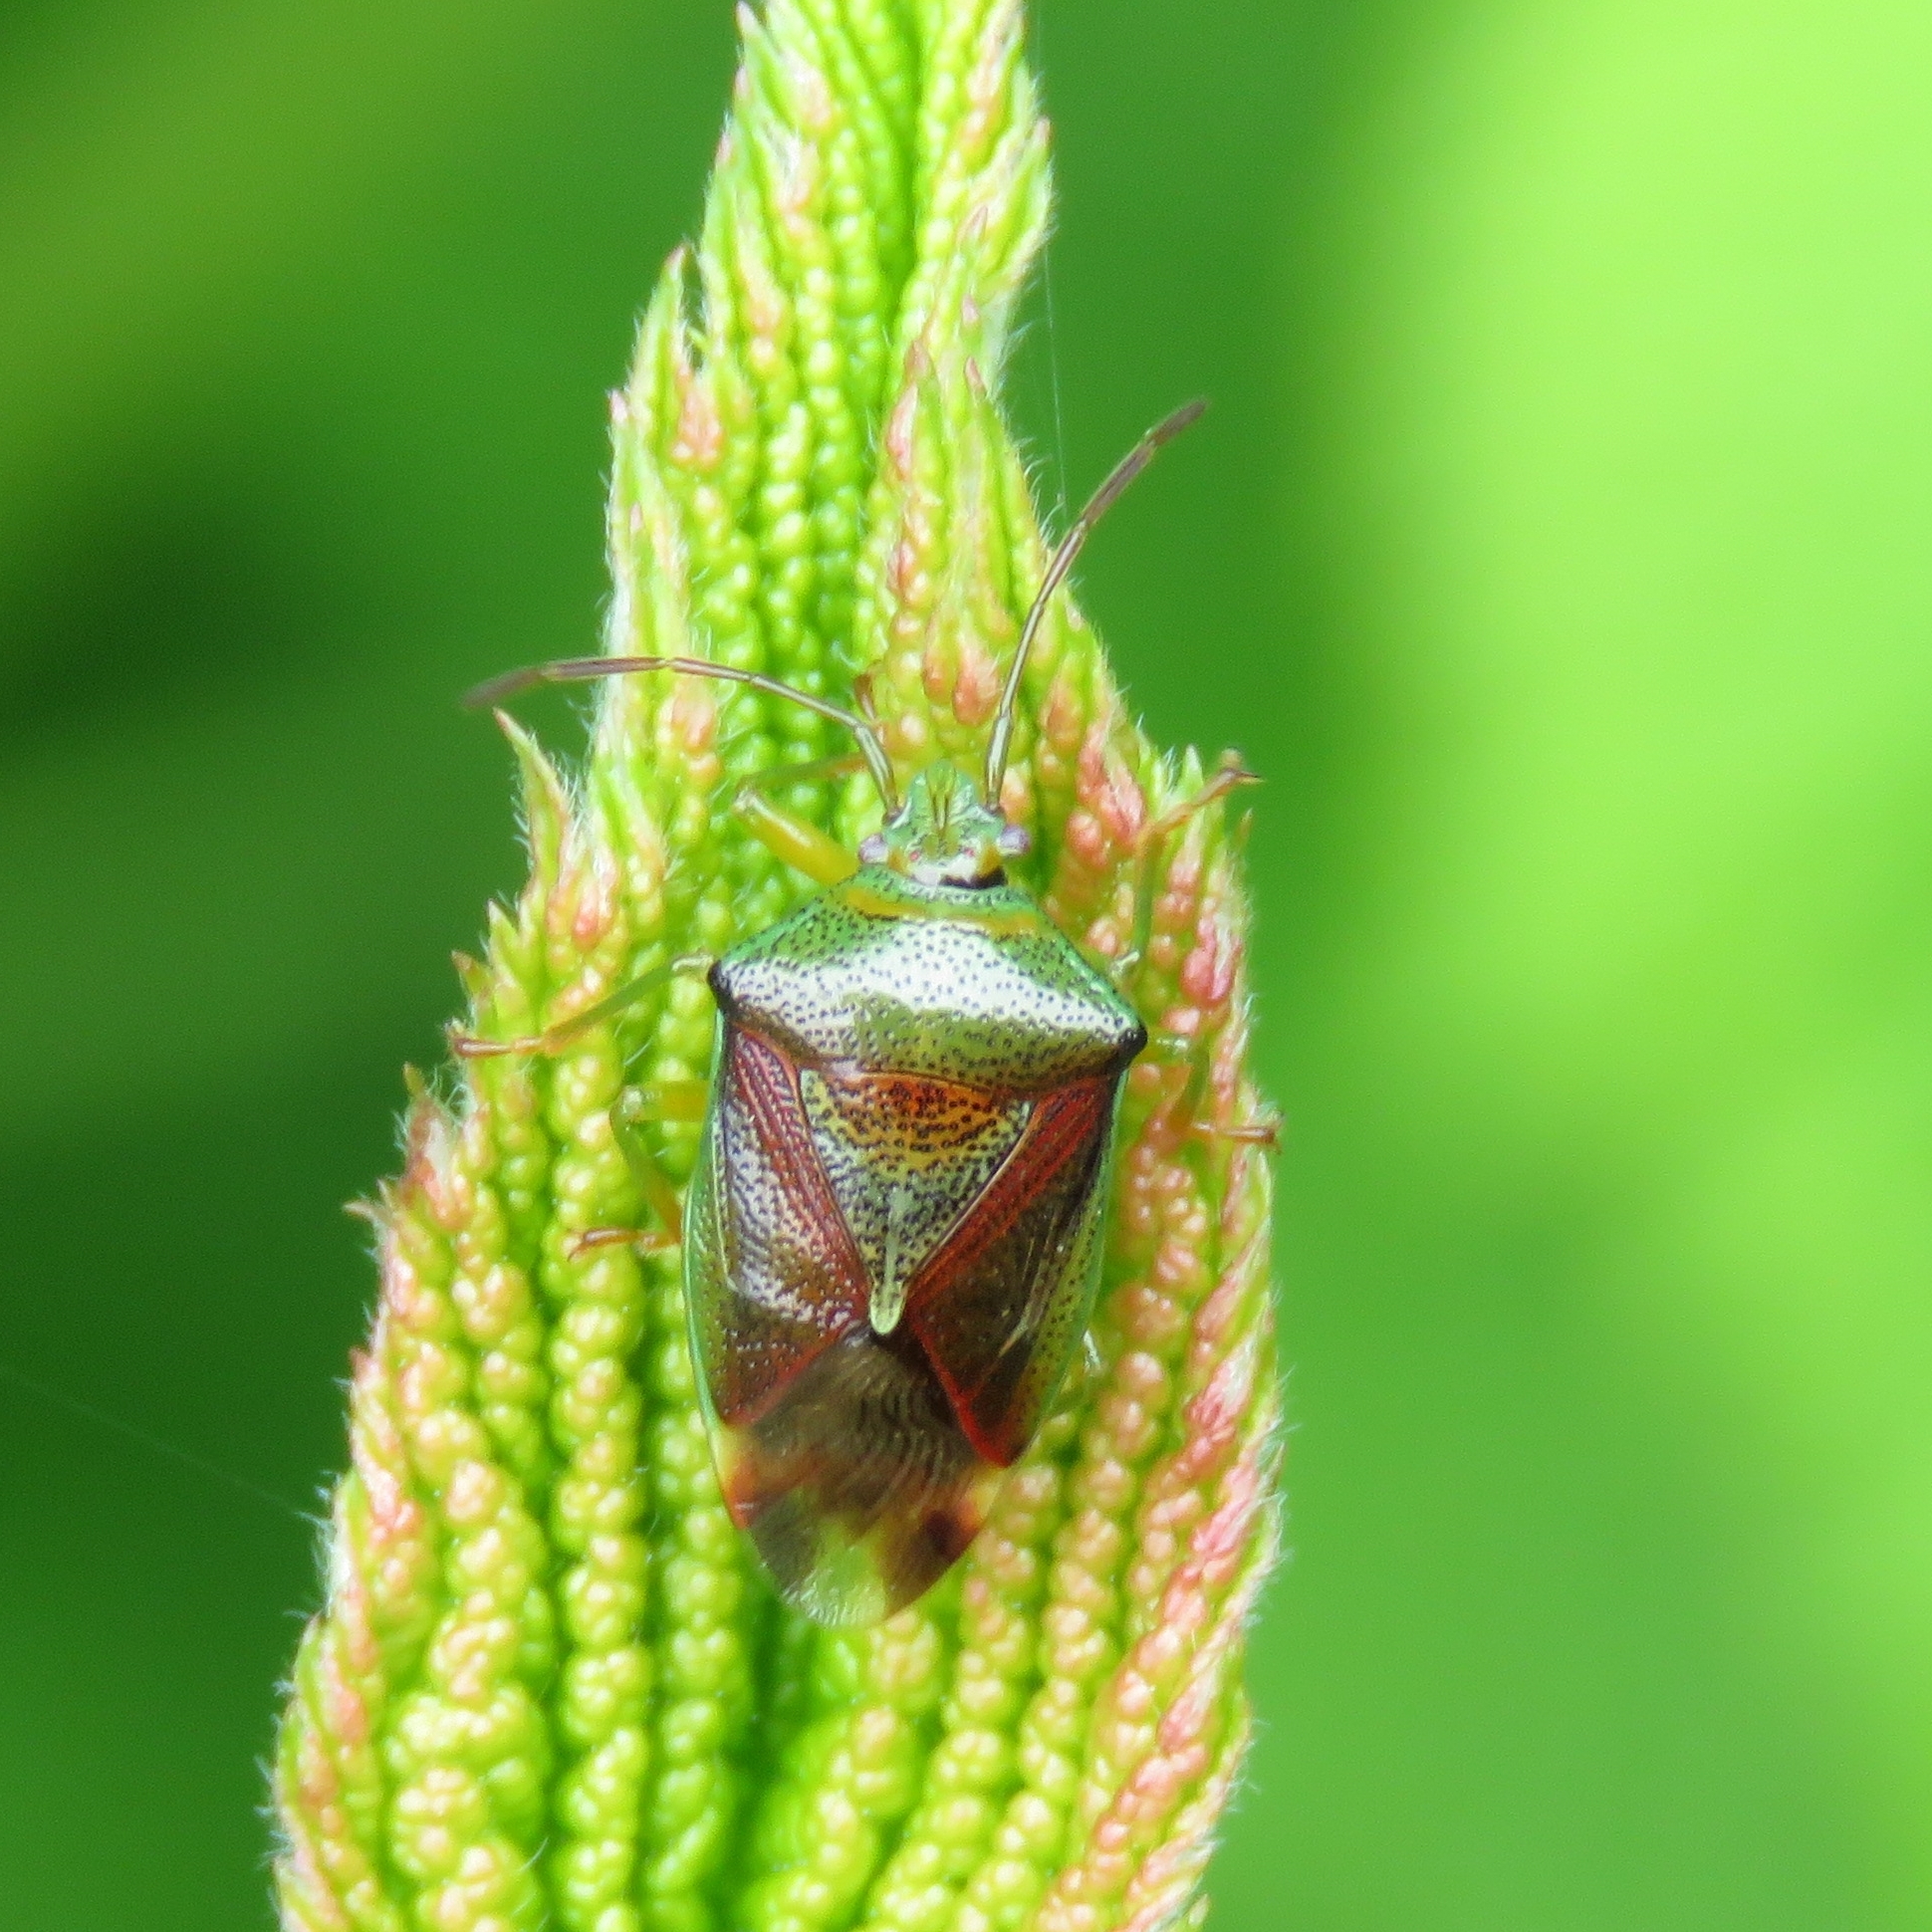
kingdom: Animalia
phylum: Arthropoda
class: Insecta
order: Hemiptera
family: Acanthosomatidae
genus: Elasmostethus
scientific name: Elasmostethus interstinctus
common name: Birch shieldbug
